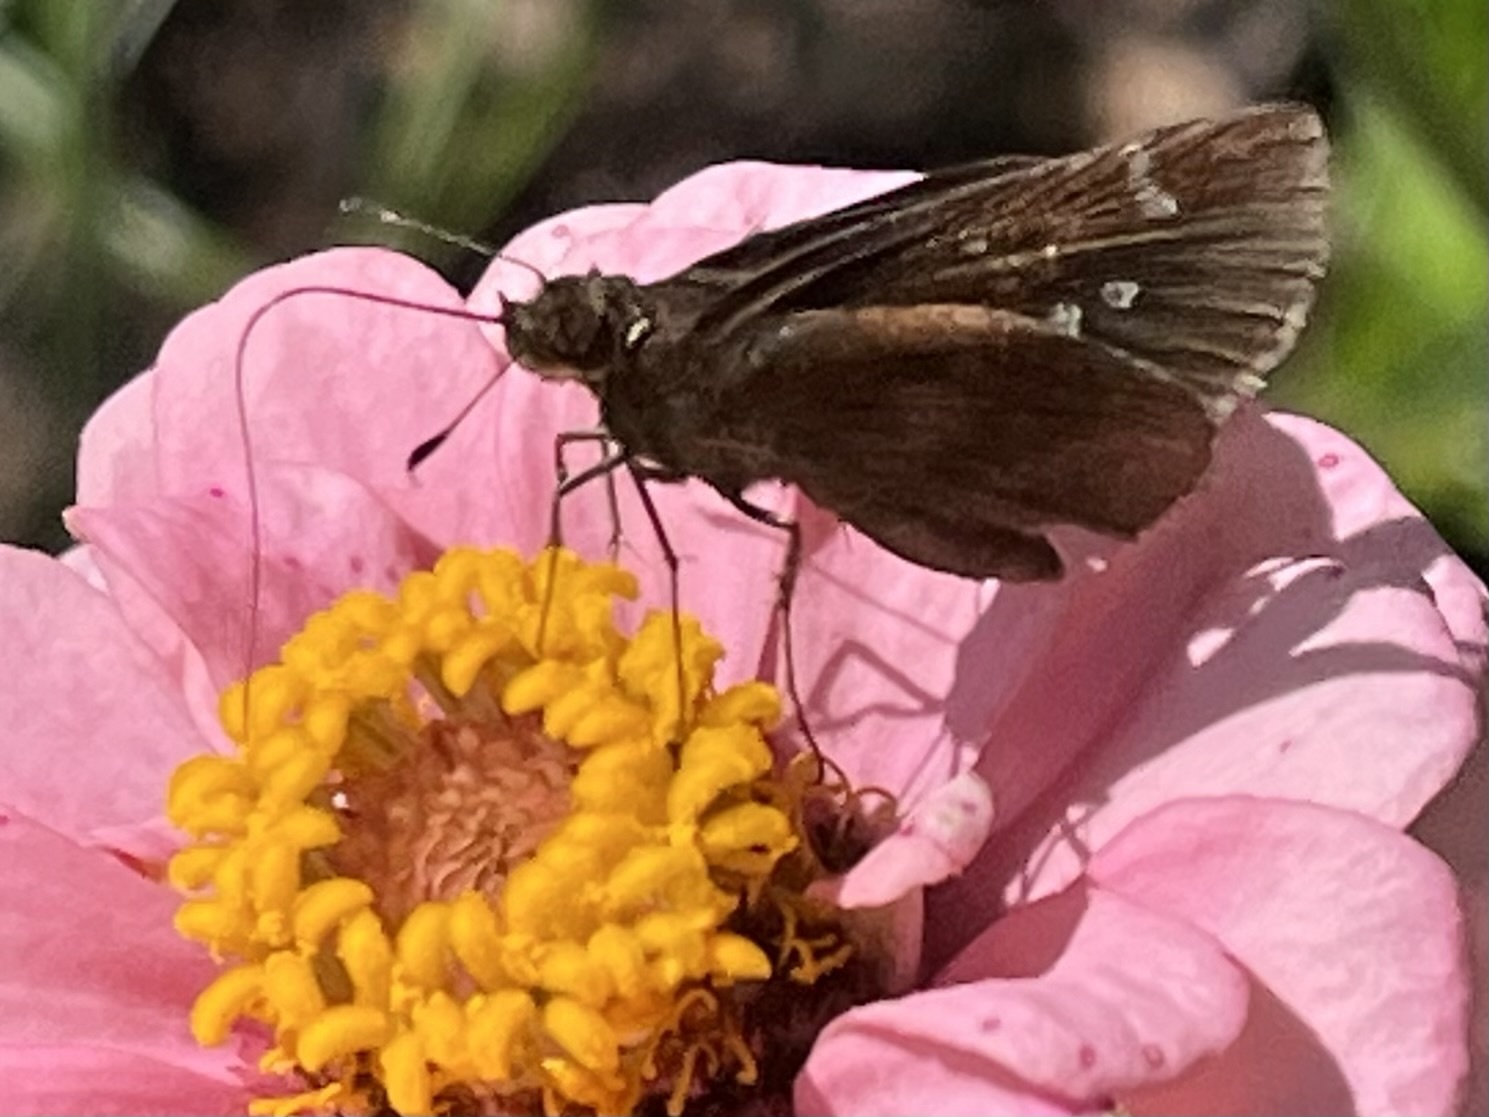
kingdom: Animalia
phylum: Arthropoda
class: Insecta
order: Lepidoptera
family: Hesperiidae
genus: Lerema
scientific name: Lerema accius
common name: Clouded skipper
